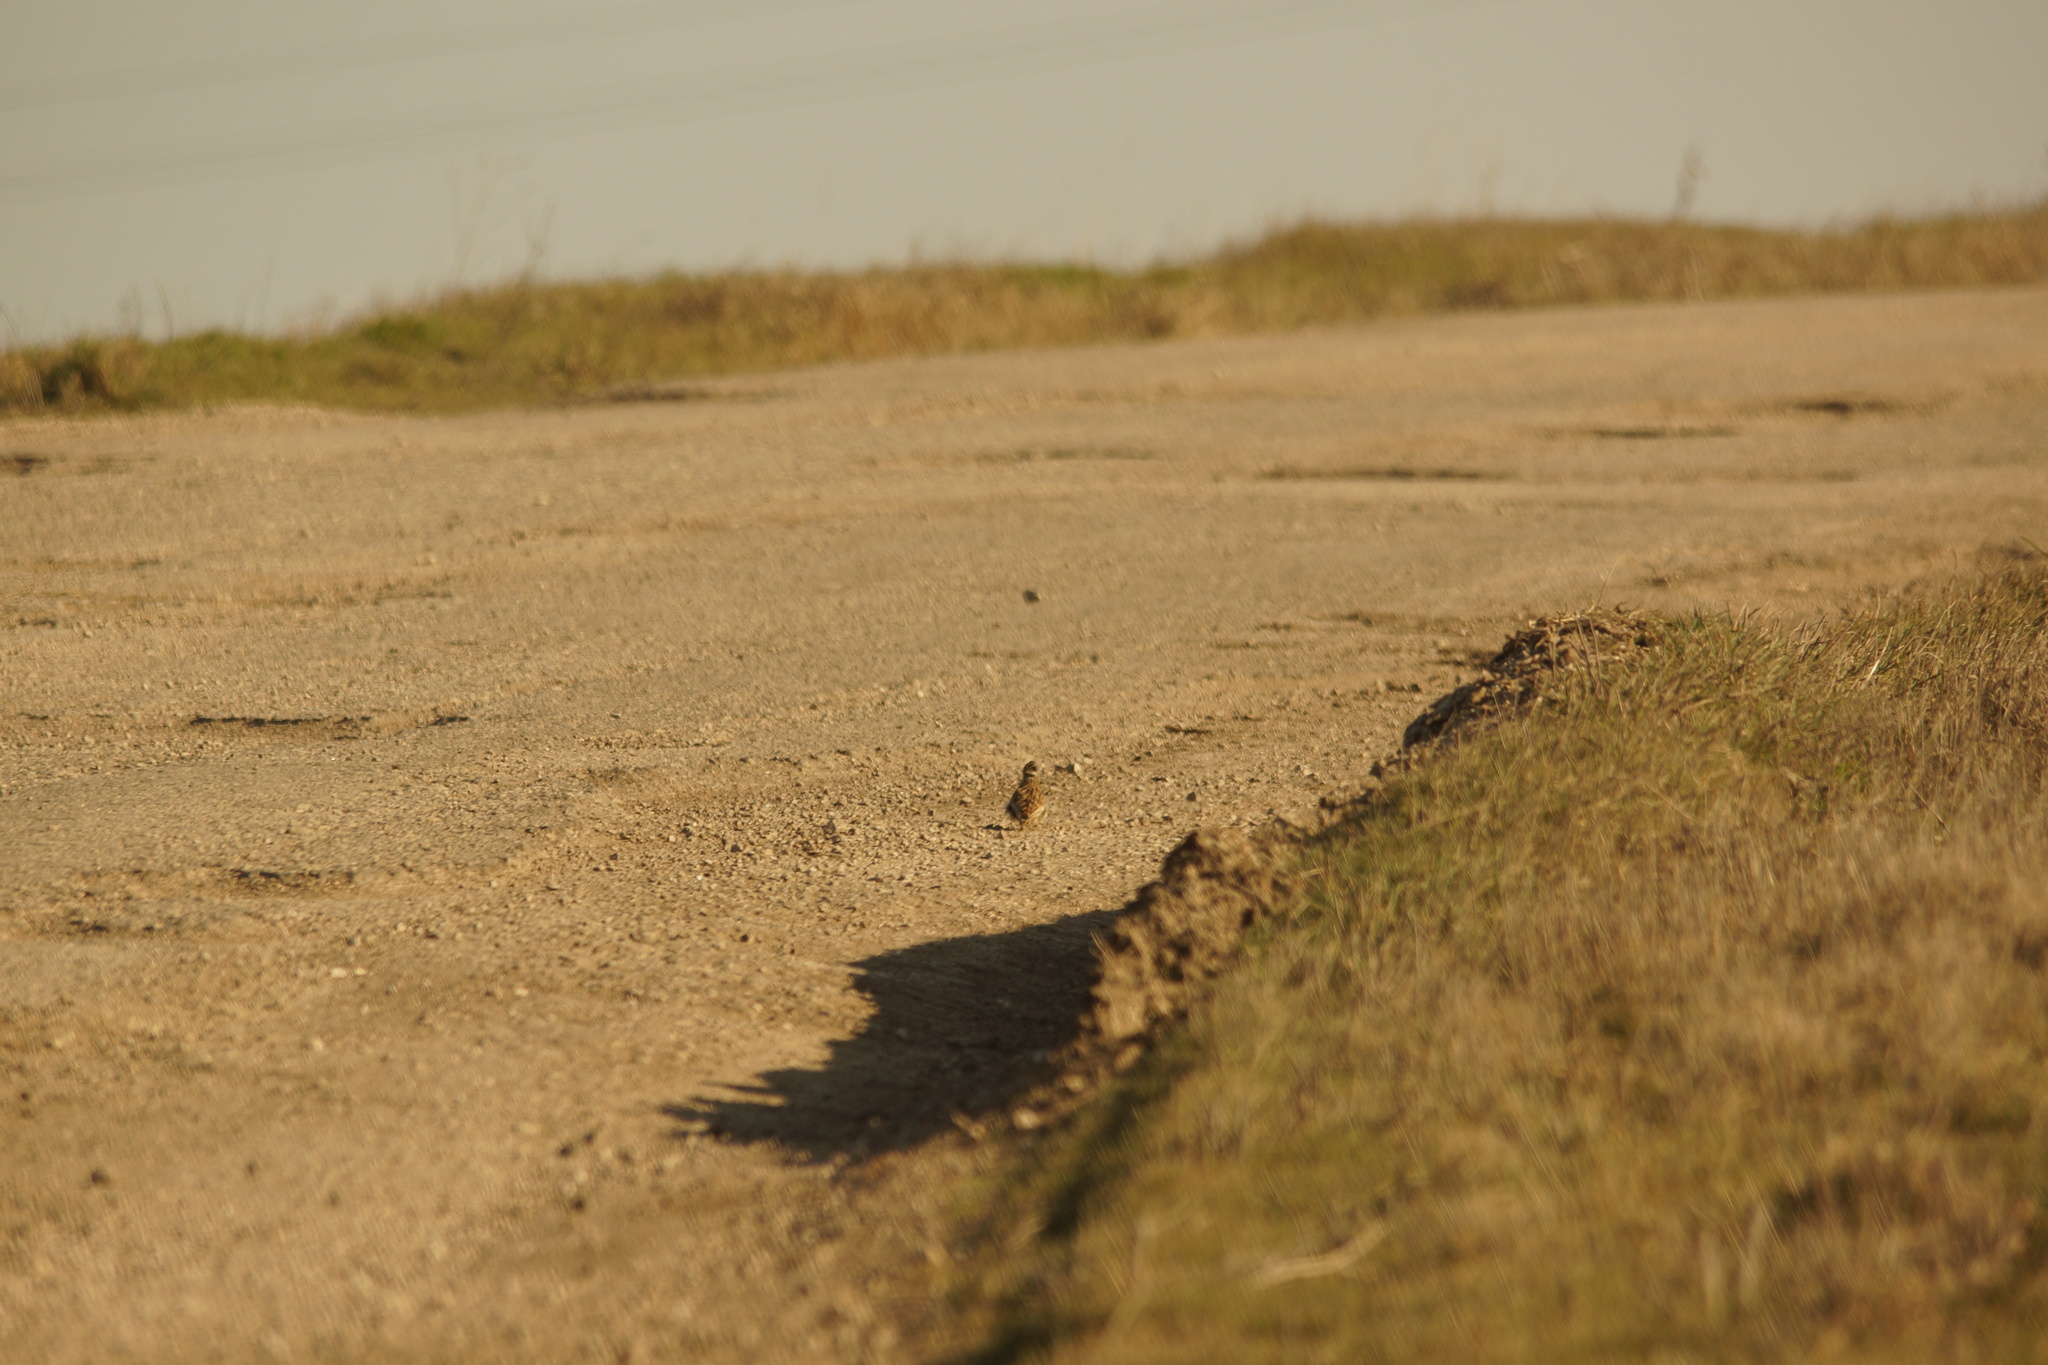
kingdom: Animalia
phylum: Chordata
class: Aves
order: Passeriformes
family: Alaudidae
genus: Lullula
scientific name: Lullula arborea
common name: Woodlark
